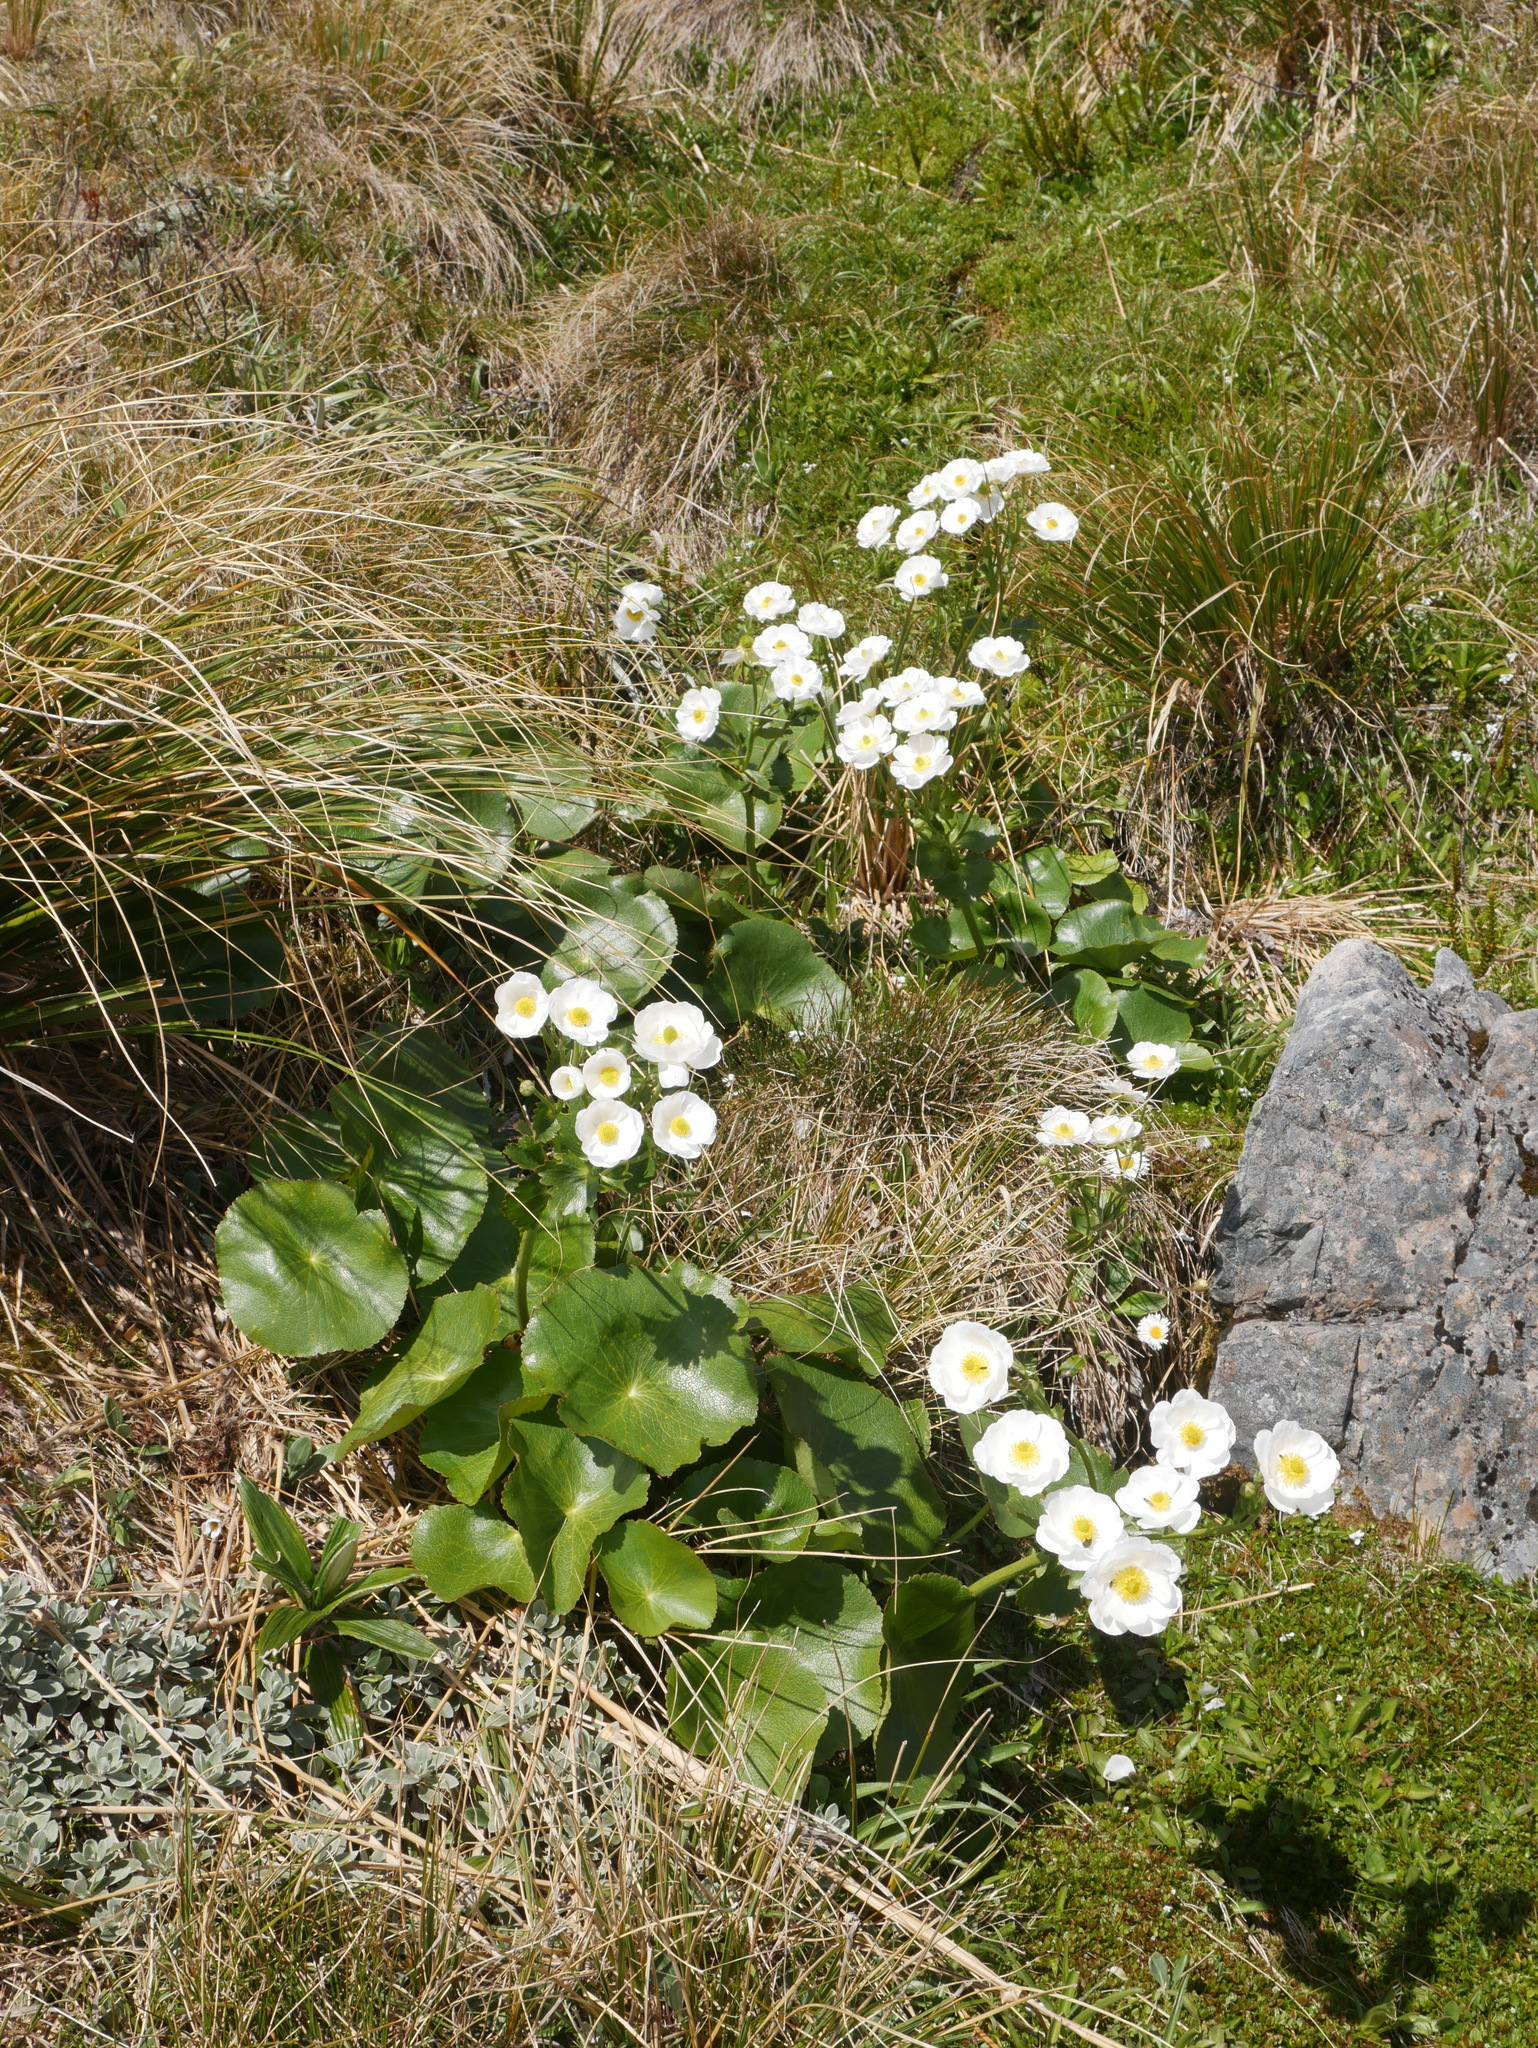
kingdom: Plantae
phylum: Tracheophyta
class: Magnoliopsida
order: Ranunculales
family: Ranunculaceae
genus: Ranunculus
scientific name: Ranunculus lyallii
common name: Mountain-lily
